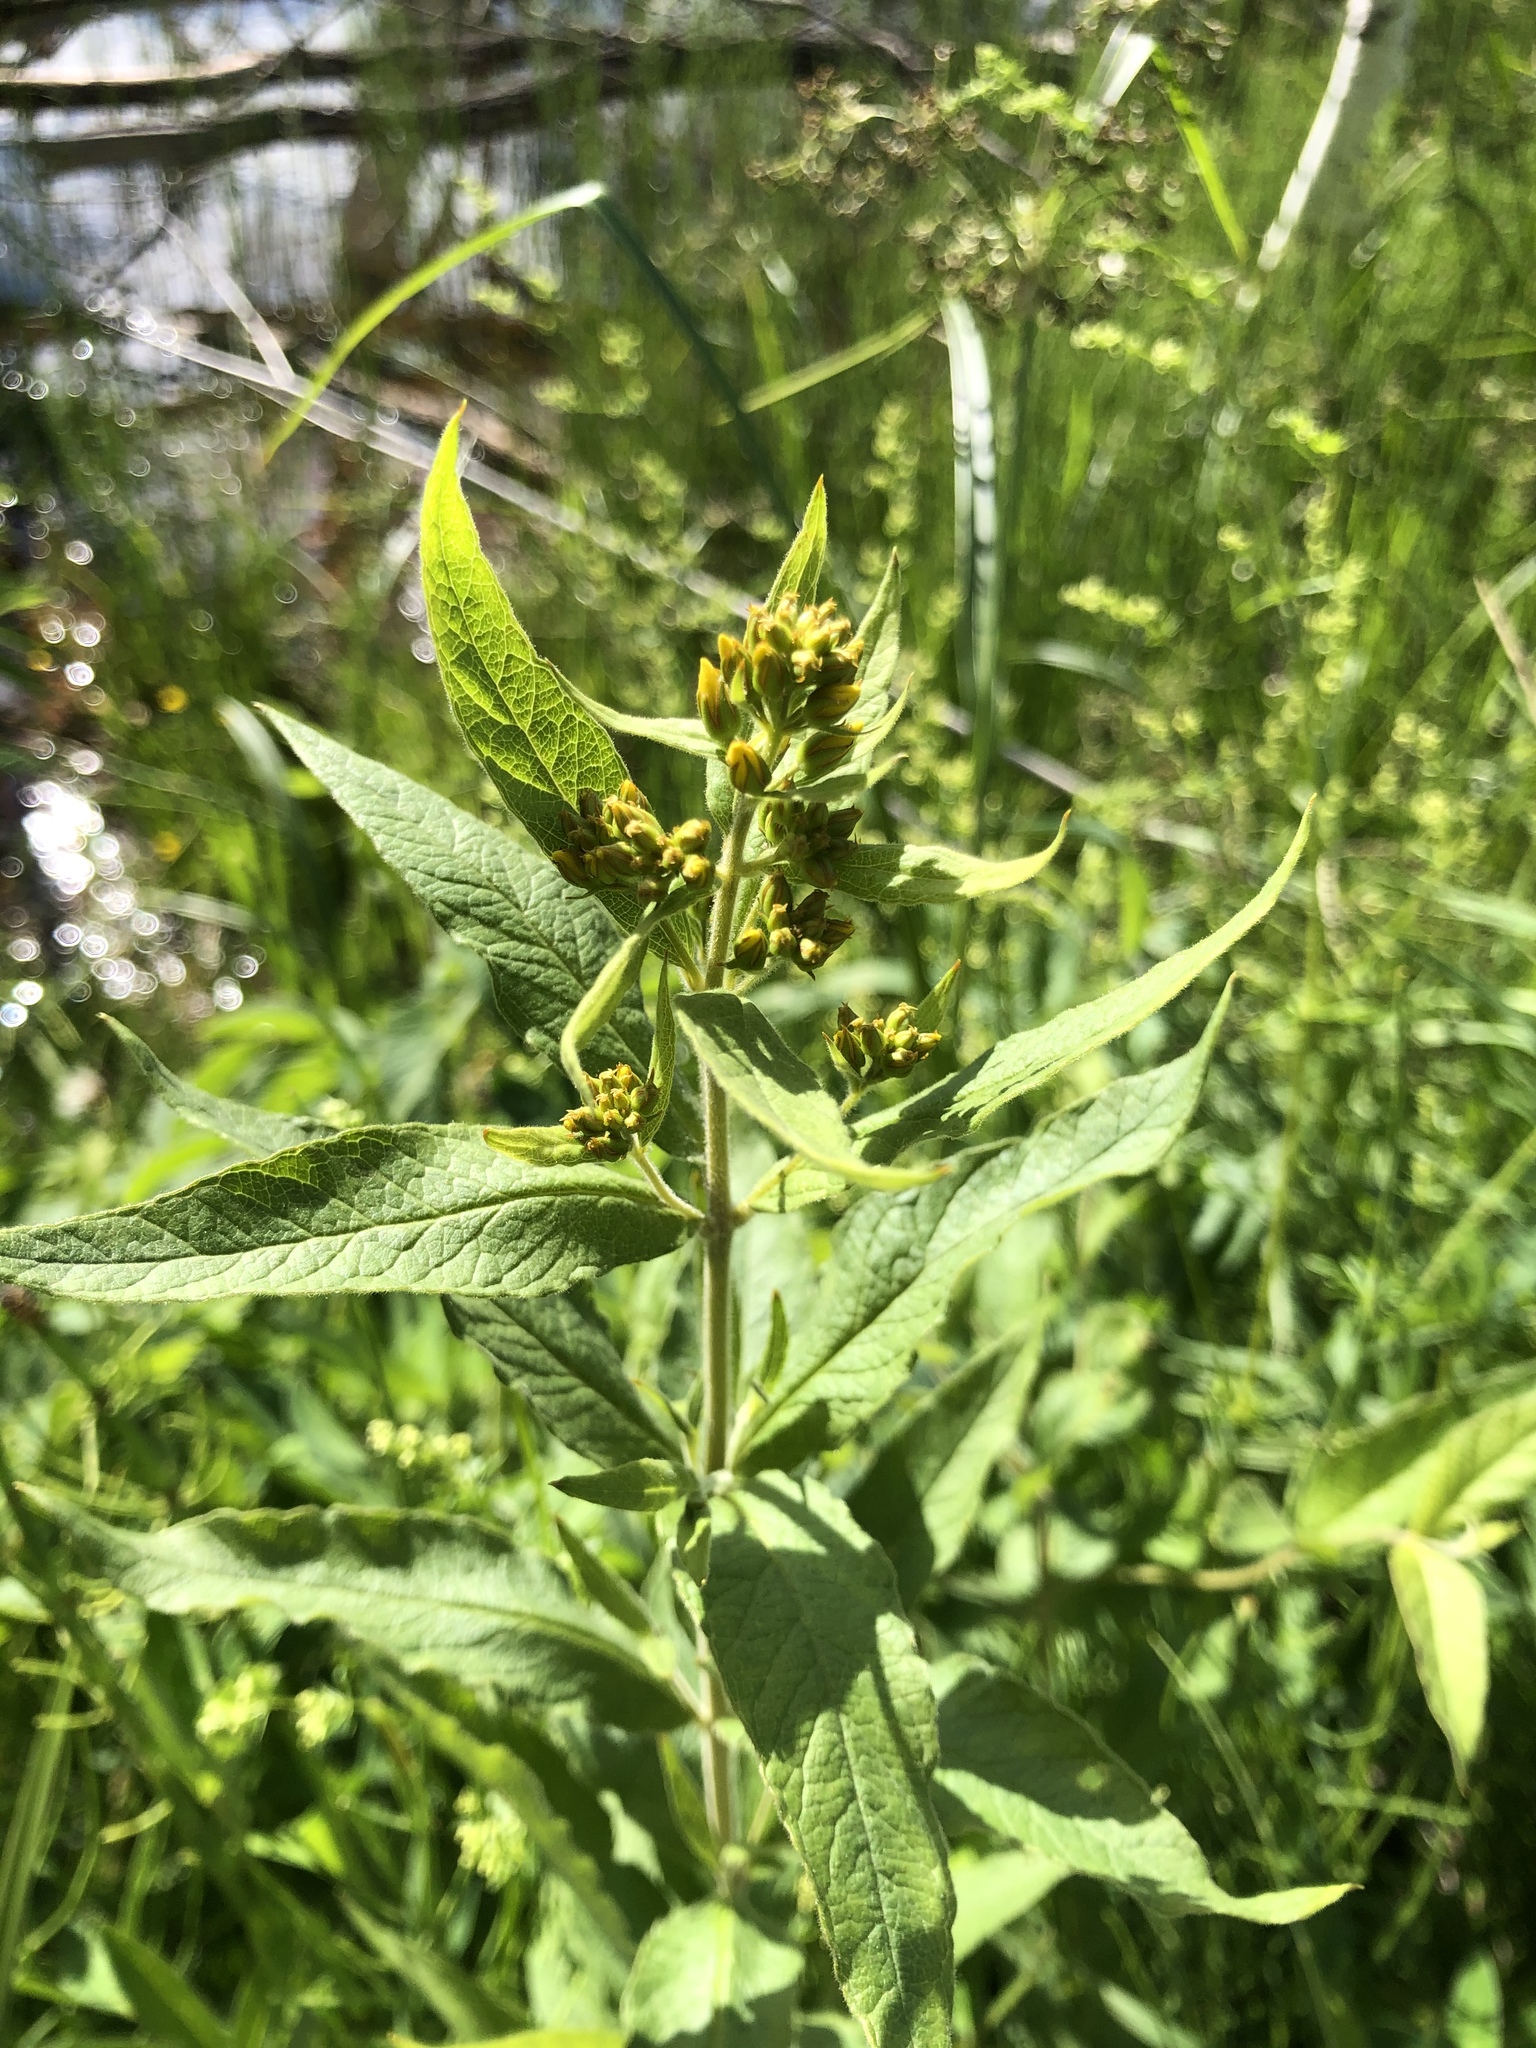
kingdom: Plantae
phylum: Tracheophyta
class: Magnoliopsida
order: Ericales
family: Primulaceae
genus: Lysimachia
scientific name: Lysimachia vulgaris
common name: Yellow loosestrife
